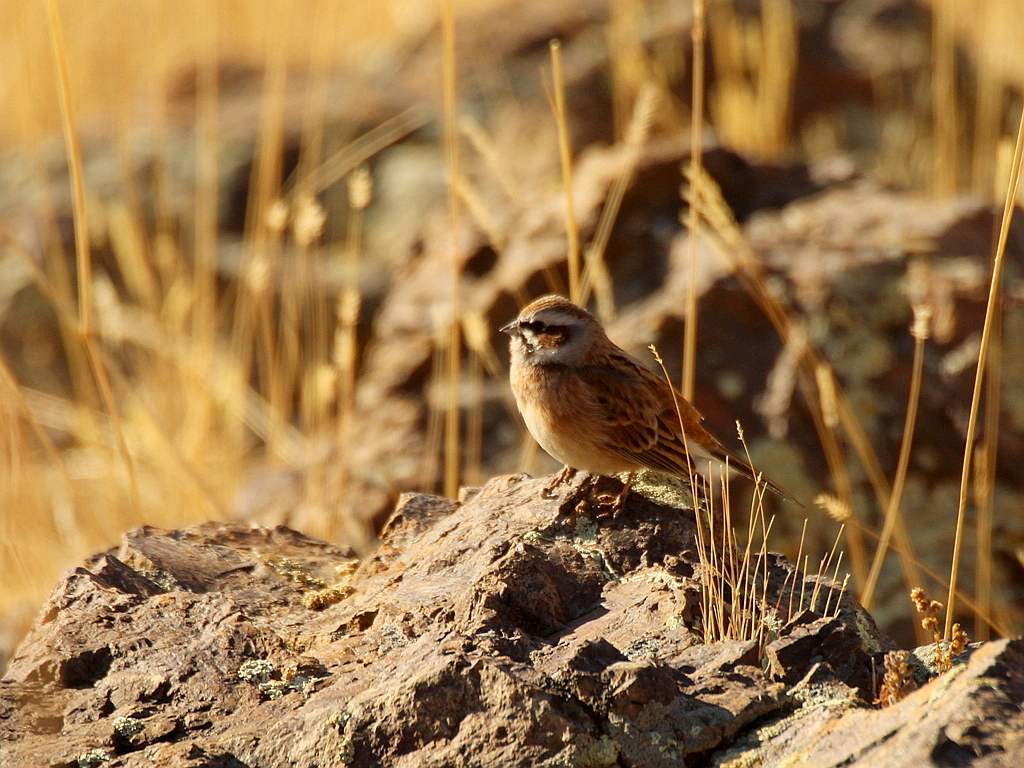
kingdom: Animalia
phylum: Chordata
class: Aves
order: Passeriformes
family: Emberizidae
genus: Emberiza
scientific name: Emberiza cioides
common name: Meadow bunting
